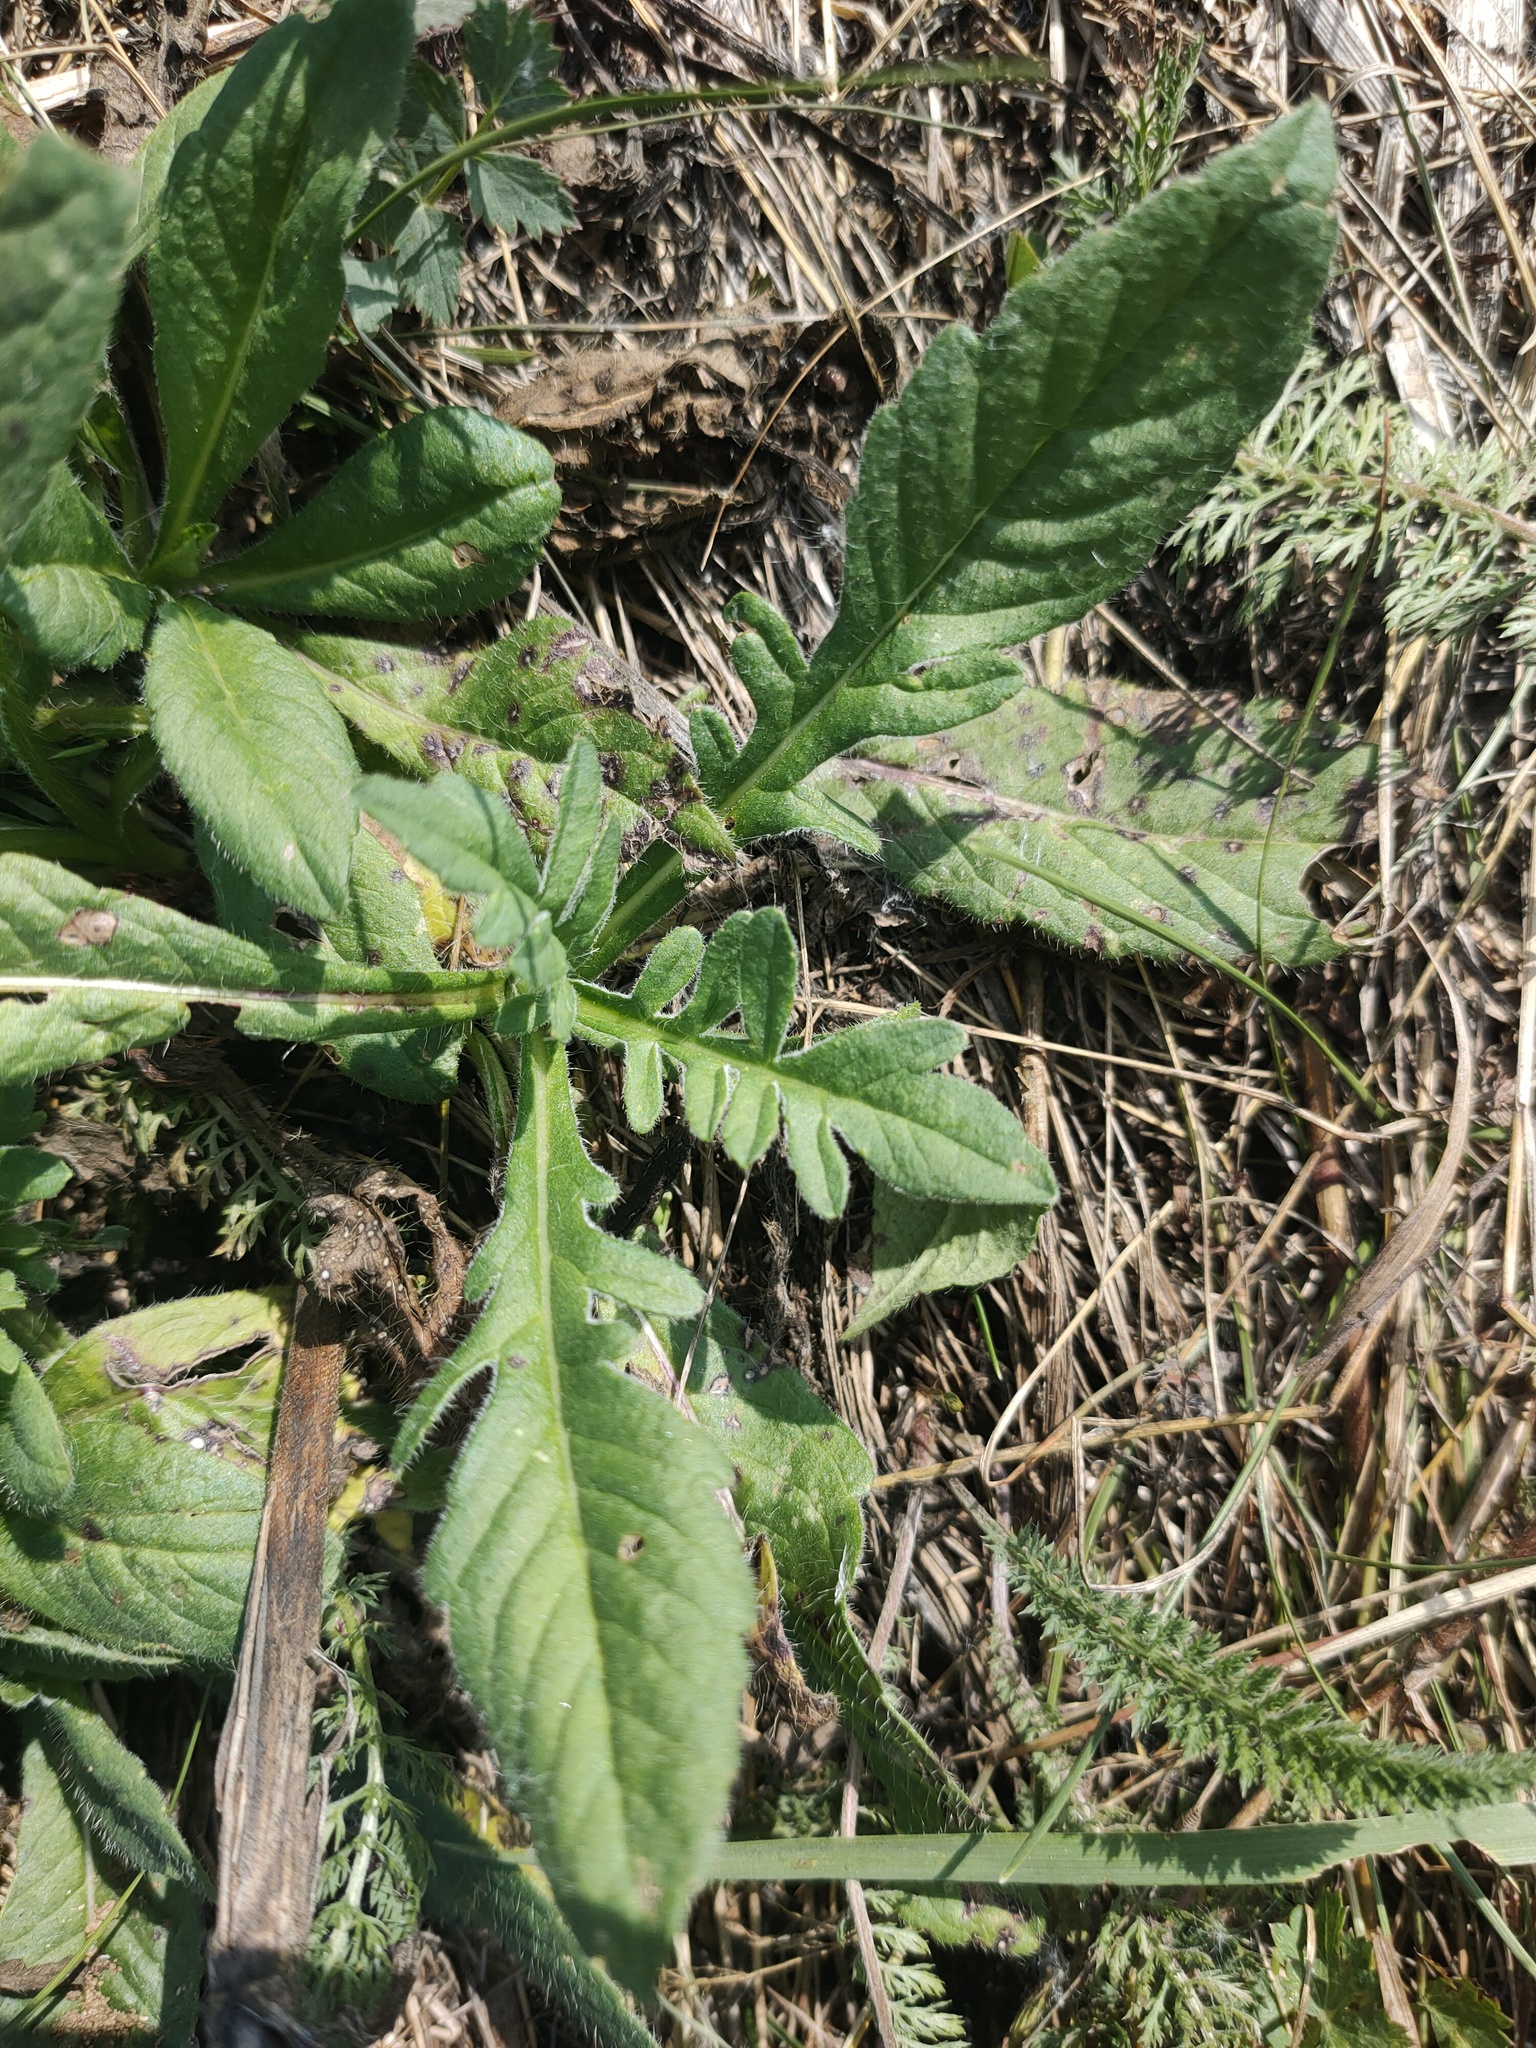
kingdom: Plantae
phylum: Tracheophyta
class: Magnoliopsida
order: Dipsacales
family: Caprifoliaceae
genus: Knautia
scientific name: Knautia arvensis
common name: Field scabiosa
